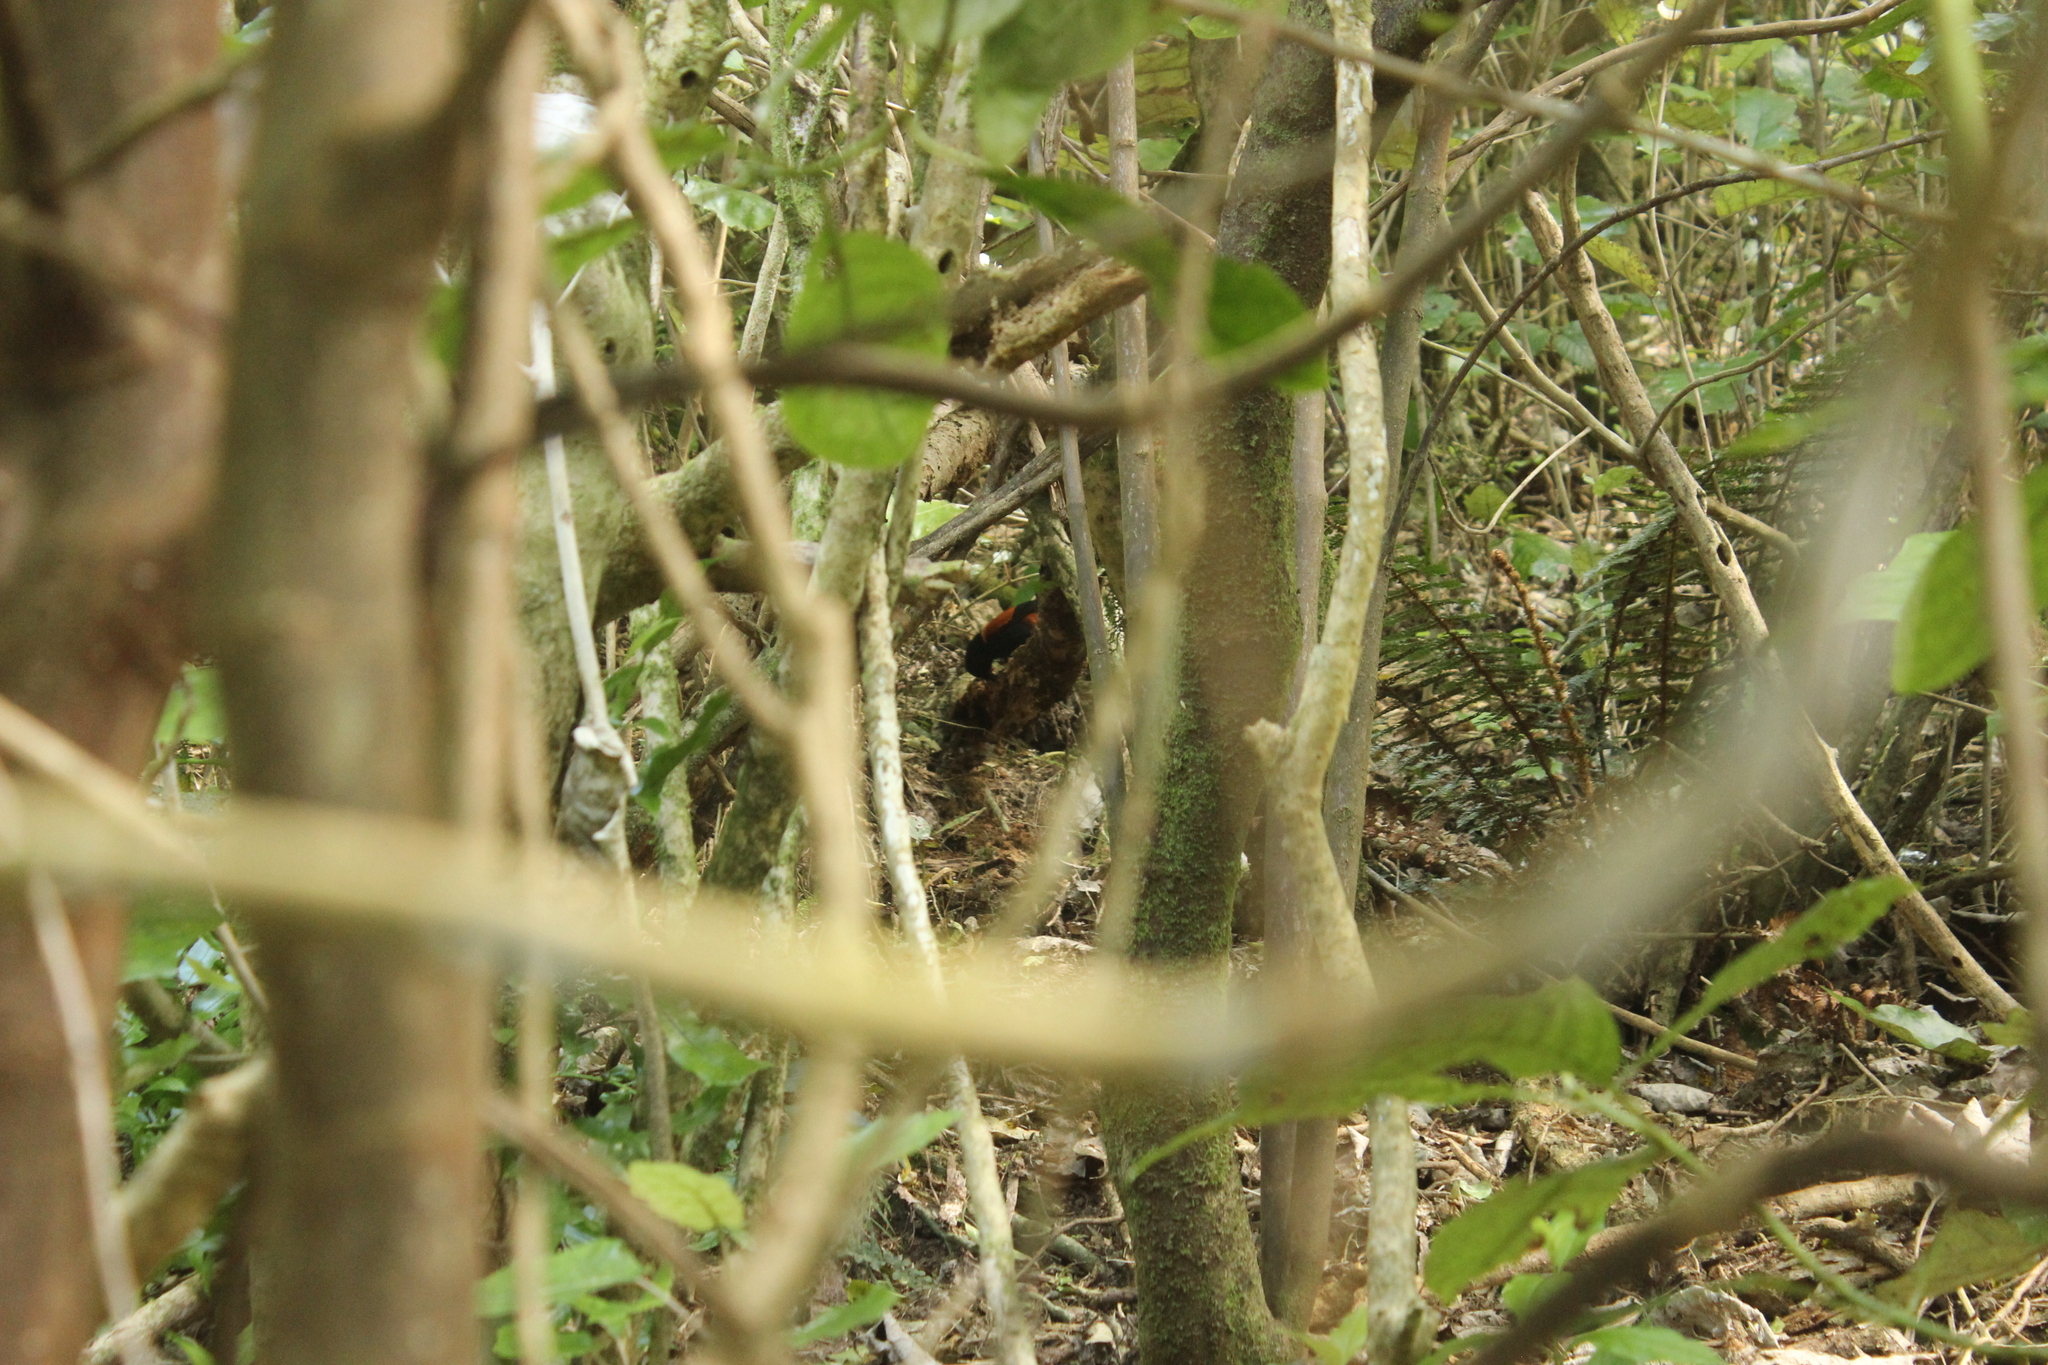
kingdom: Animalia
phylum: Chordata
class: Aves
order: Passeriformes
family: Callaeatidae
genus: Philesturnus
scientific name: Philesturnus carunculatus
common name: South island saddleback
